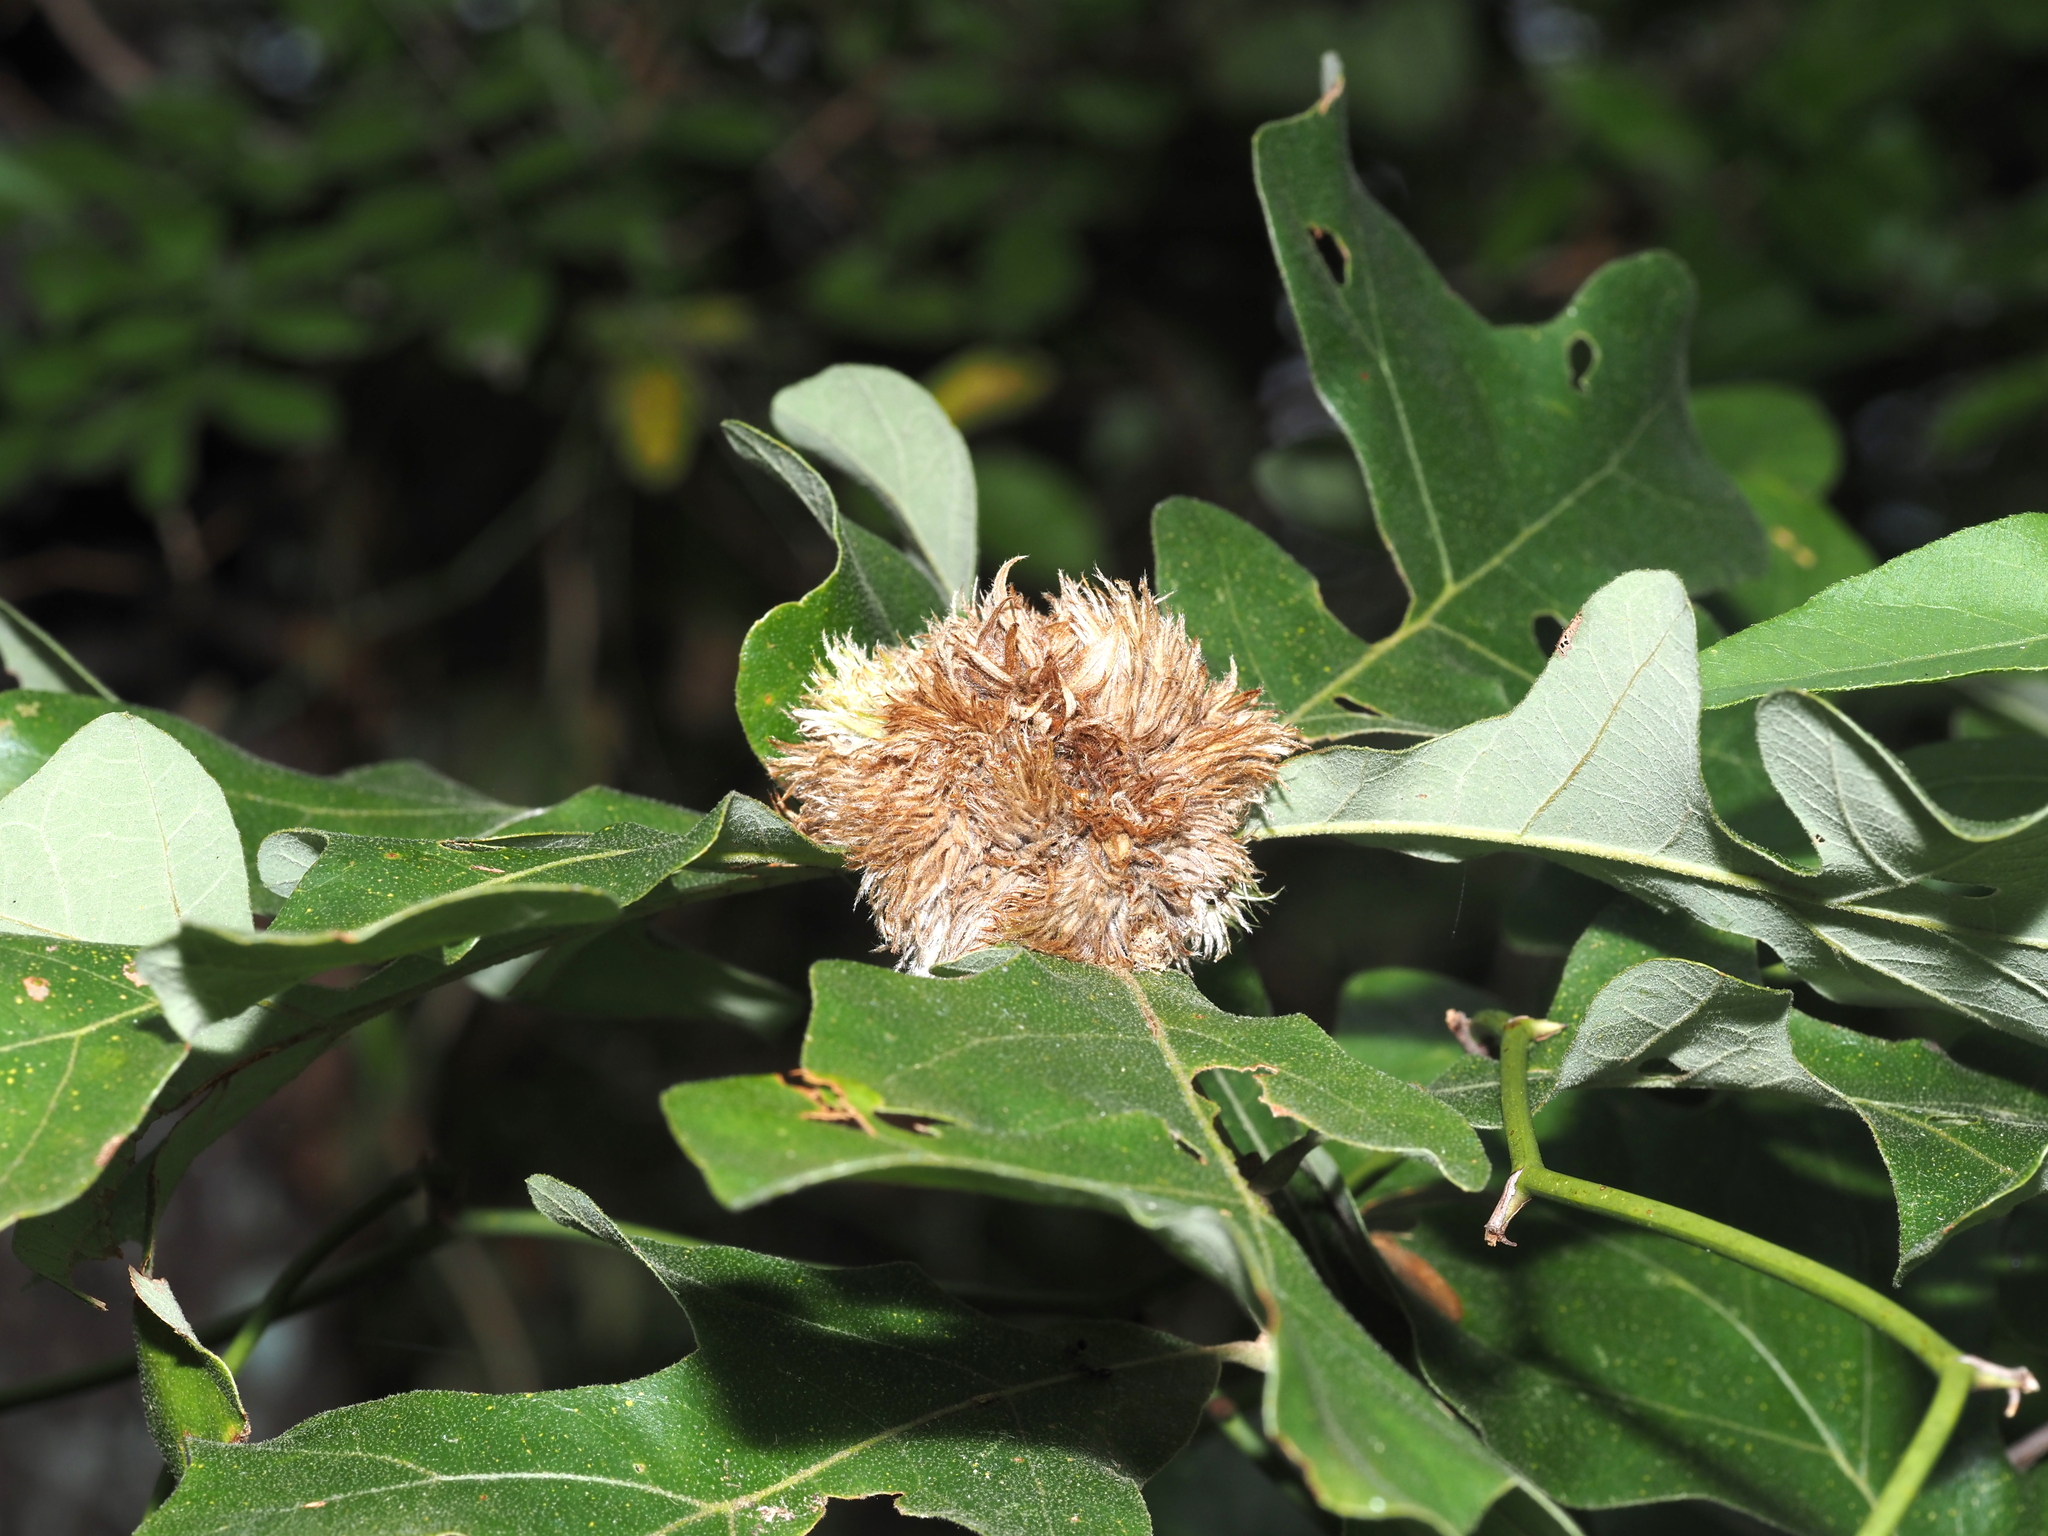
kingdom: Animalia
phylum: Arthropoda
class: Insecta
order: Hymenoptera
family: Cynipidae
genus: Andricus
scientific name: Andricus
